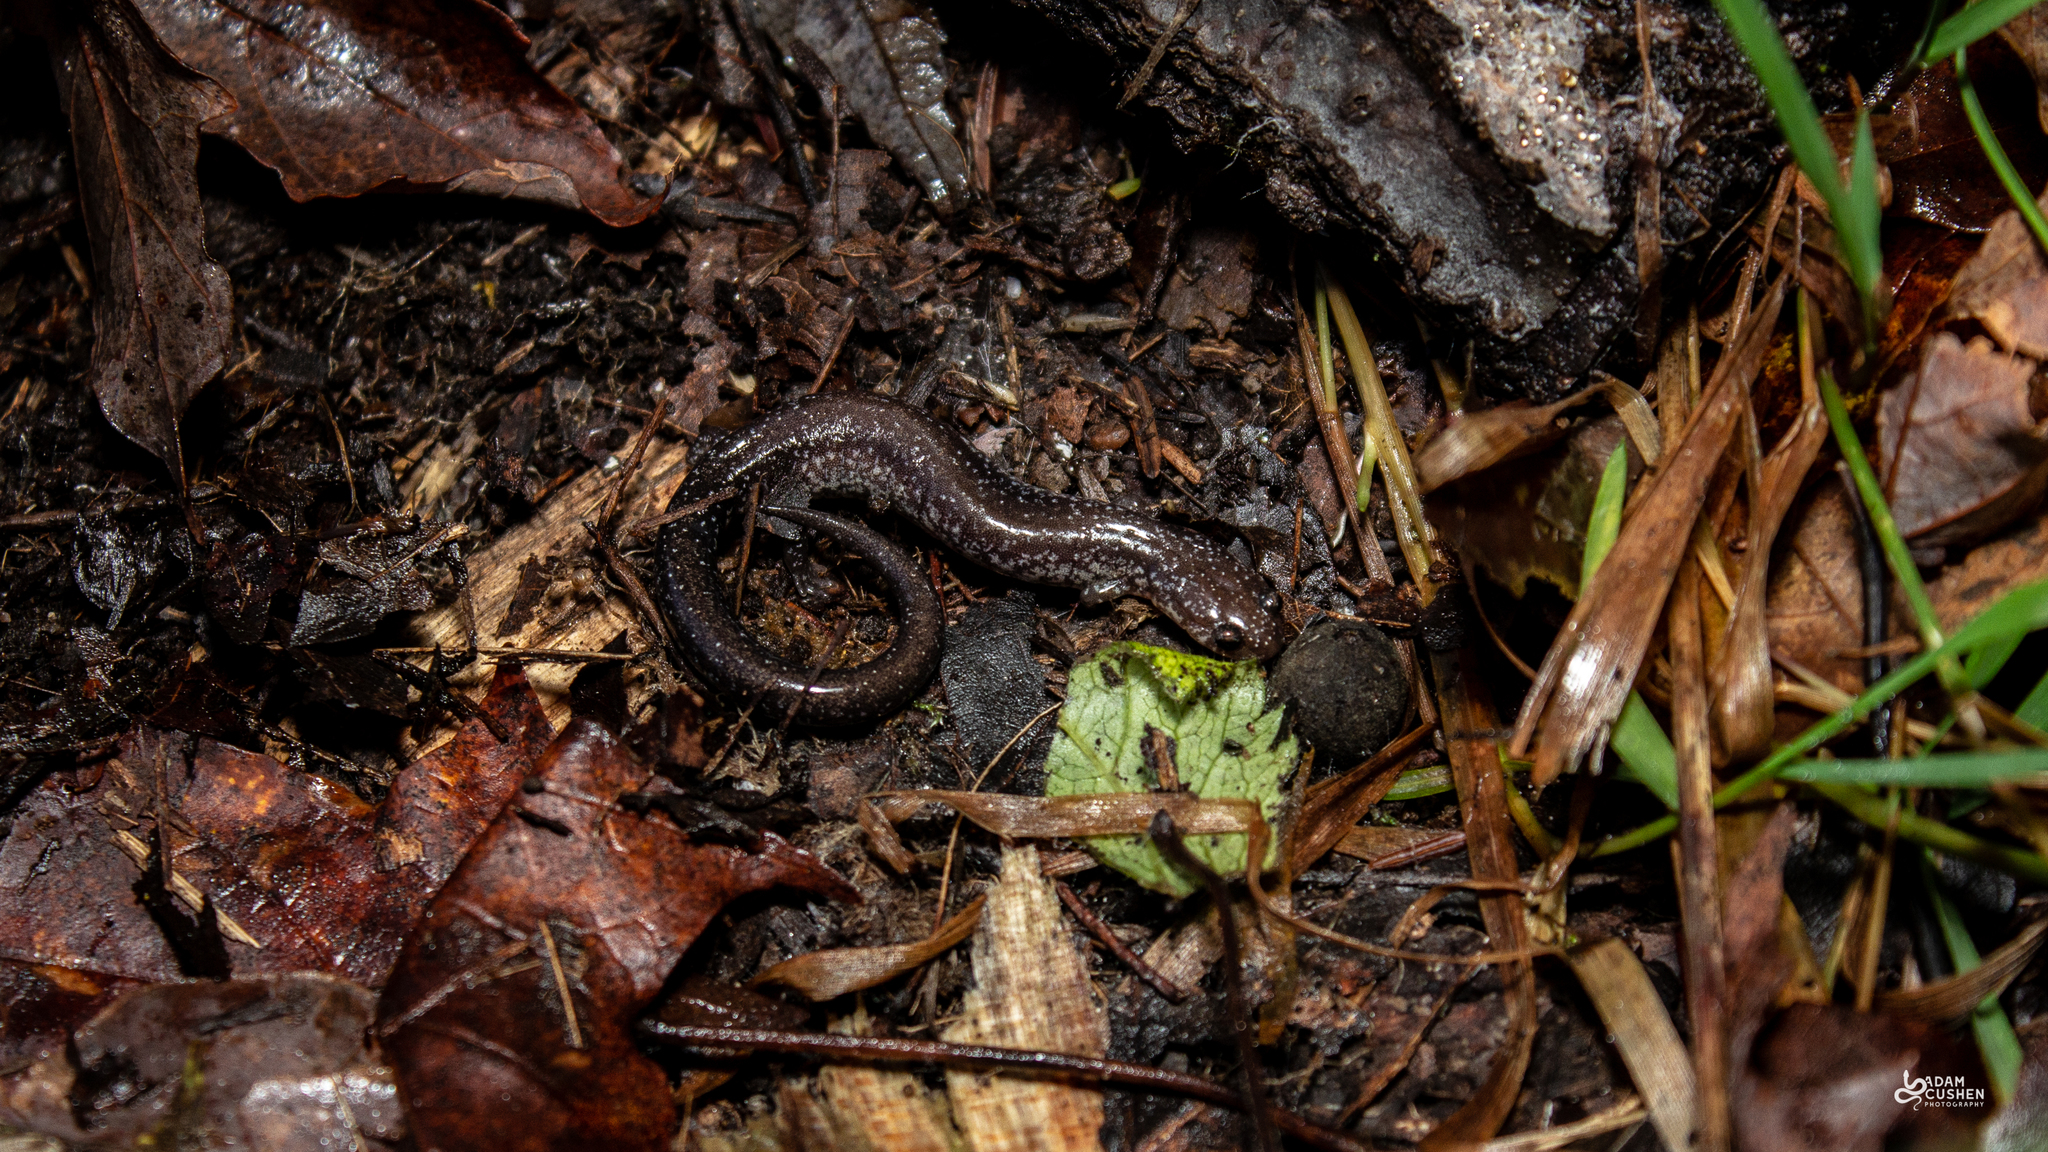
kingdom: Animalia
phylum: Chordata
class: Amphibia
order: Caudata
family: Plethodontidae
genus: Plethodon
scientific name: Plethodon cinereus
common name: Redback salamander
